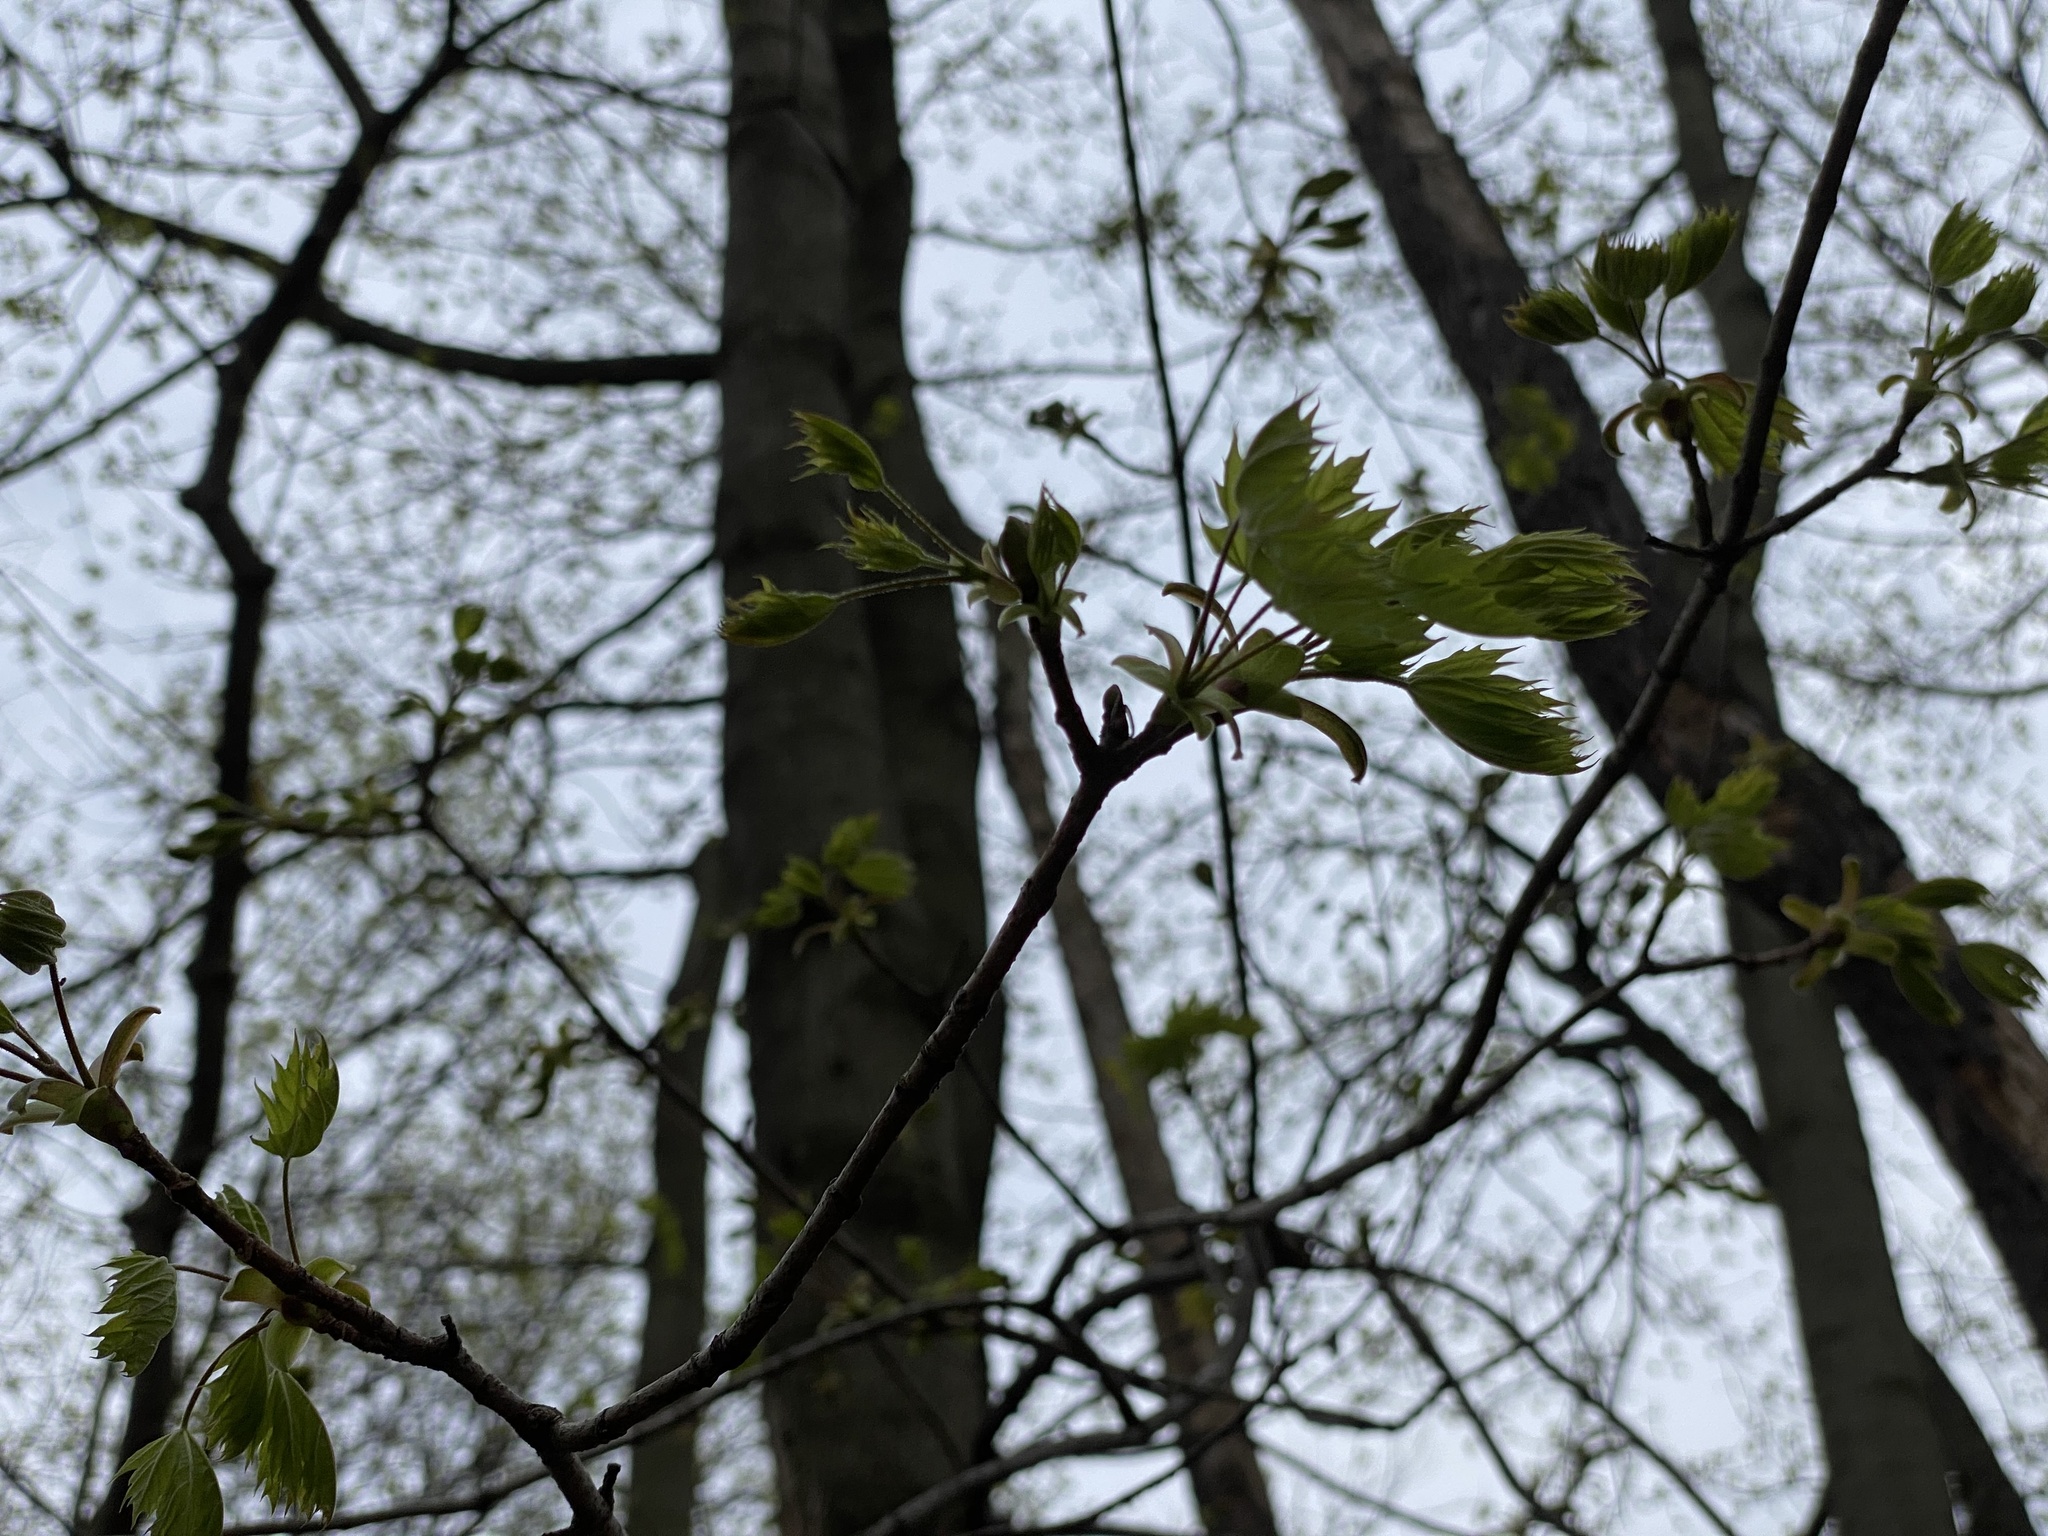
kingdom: Plantae
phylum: Tracheophyta
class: Magnoliopsida
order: Sapindales
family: Sapindaceae
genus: Acer
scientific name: Acer platanoides
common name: Norway maple
